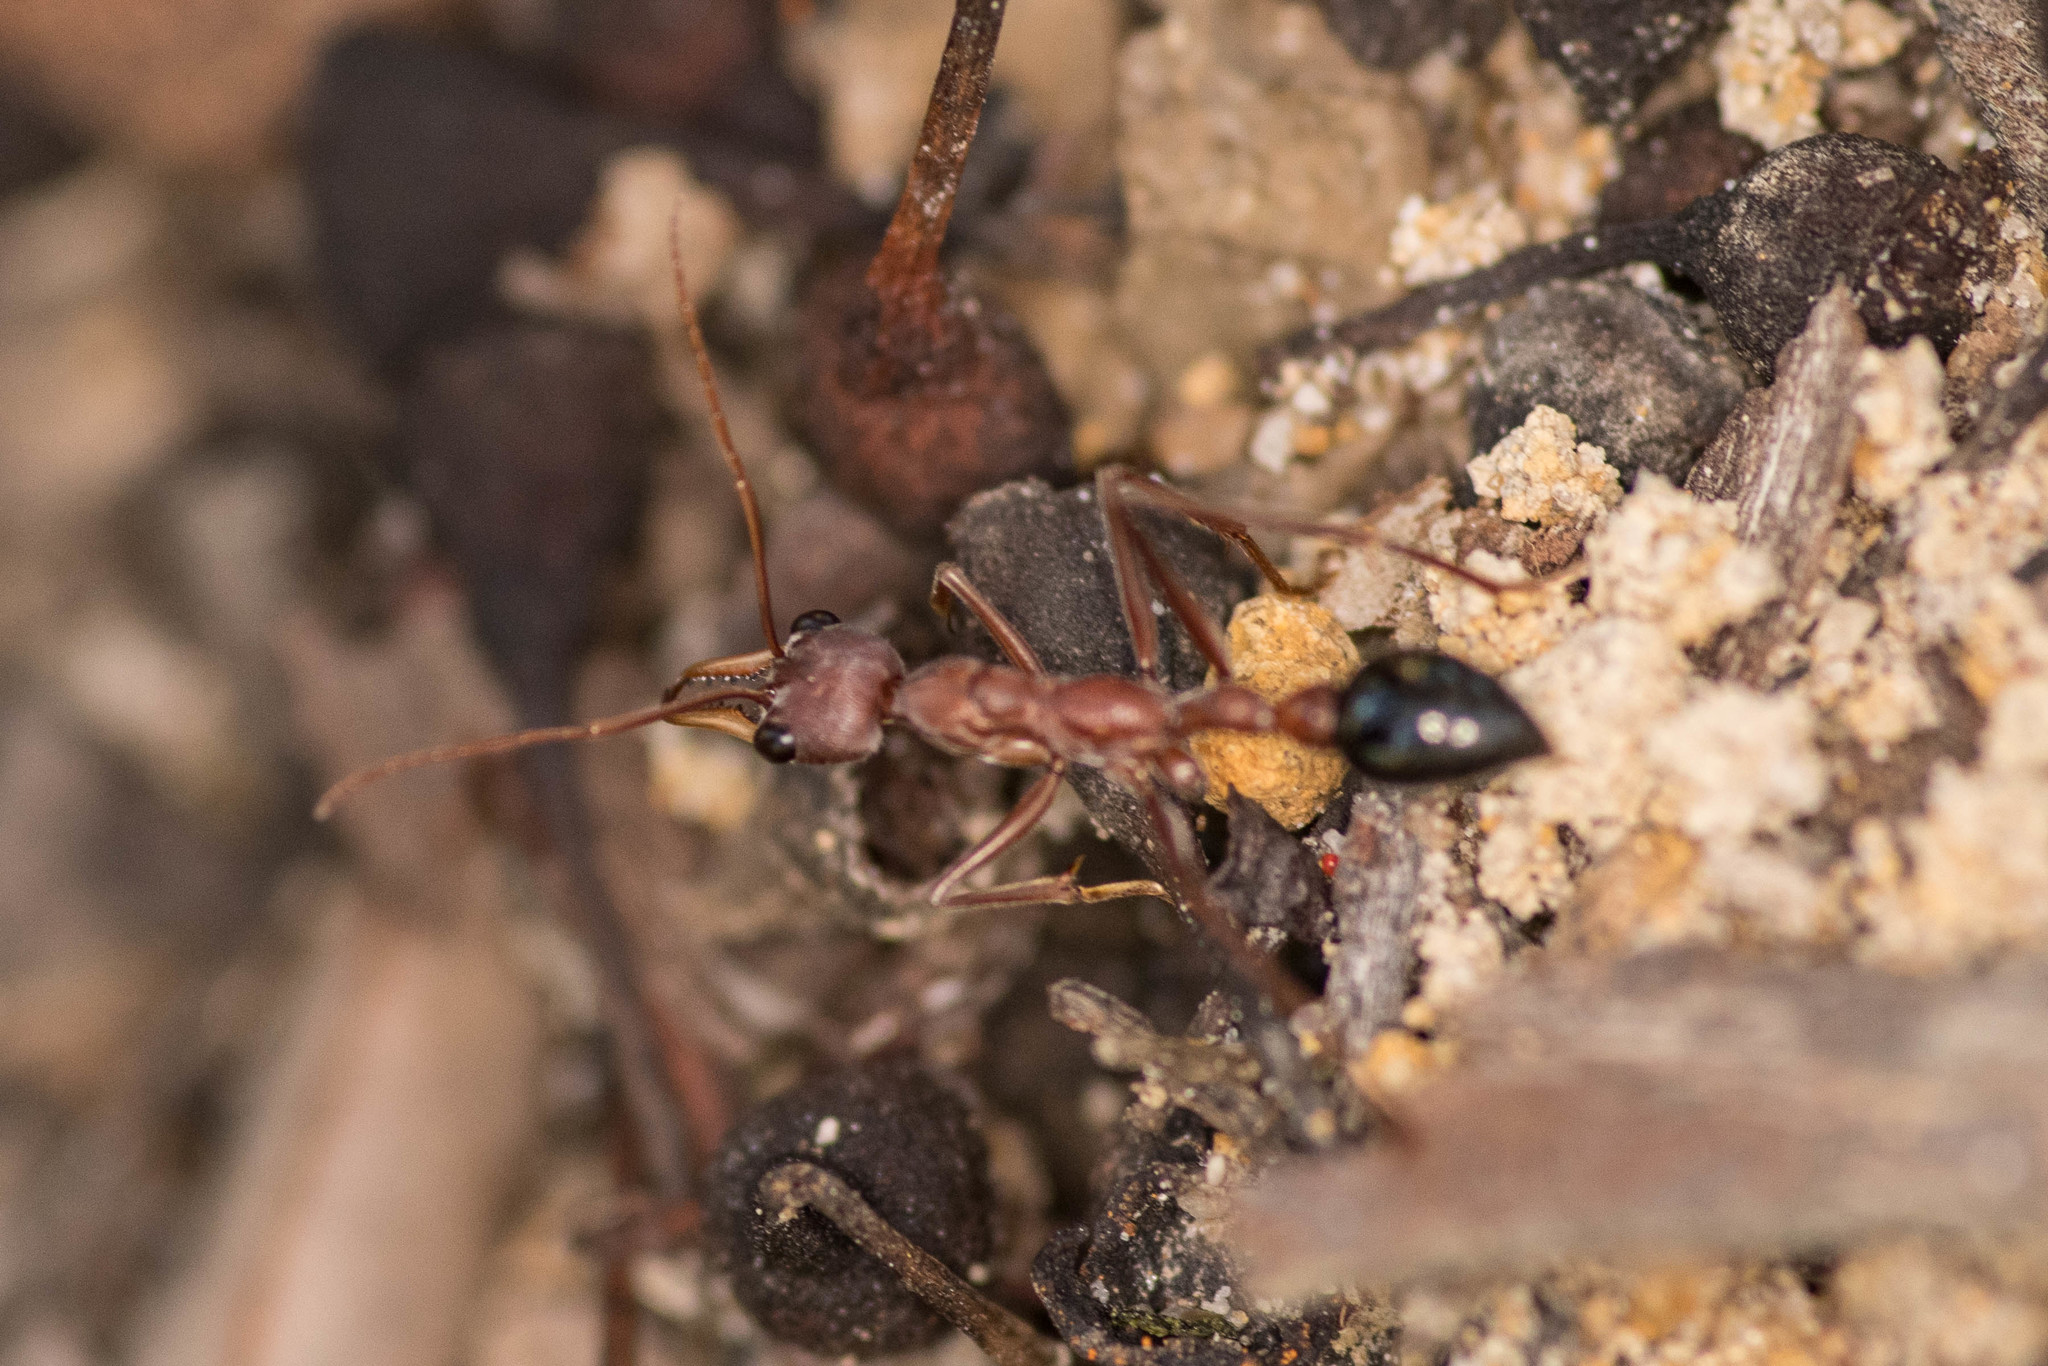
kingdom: Animalia
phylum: Arthropoda
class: Insecta
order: Hymenoptera
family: Formicidae
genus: Myrmecia
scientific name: Myrmecia vindex
